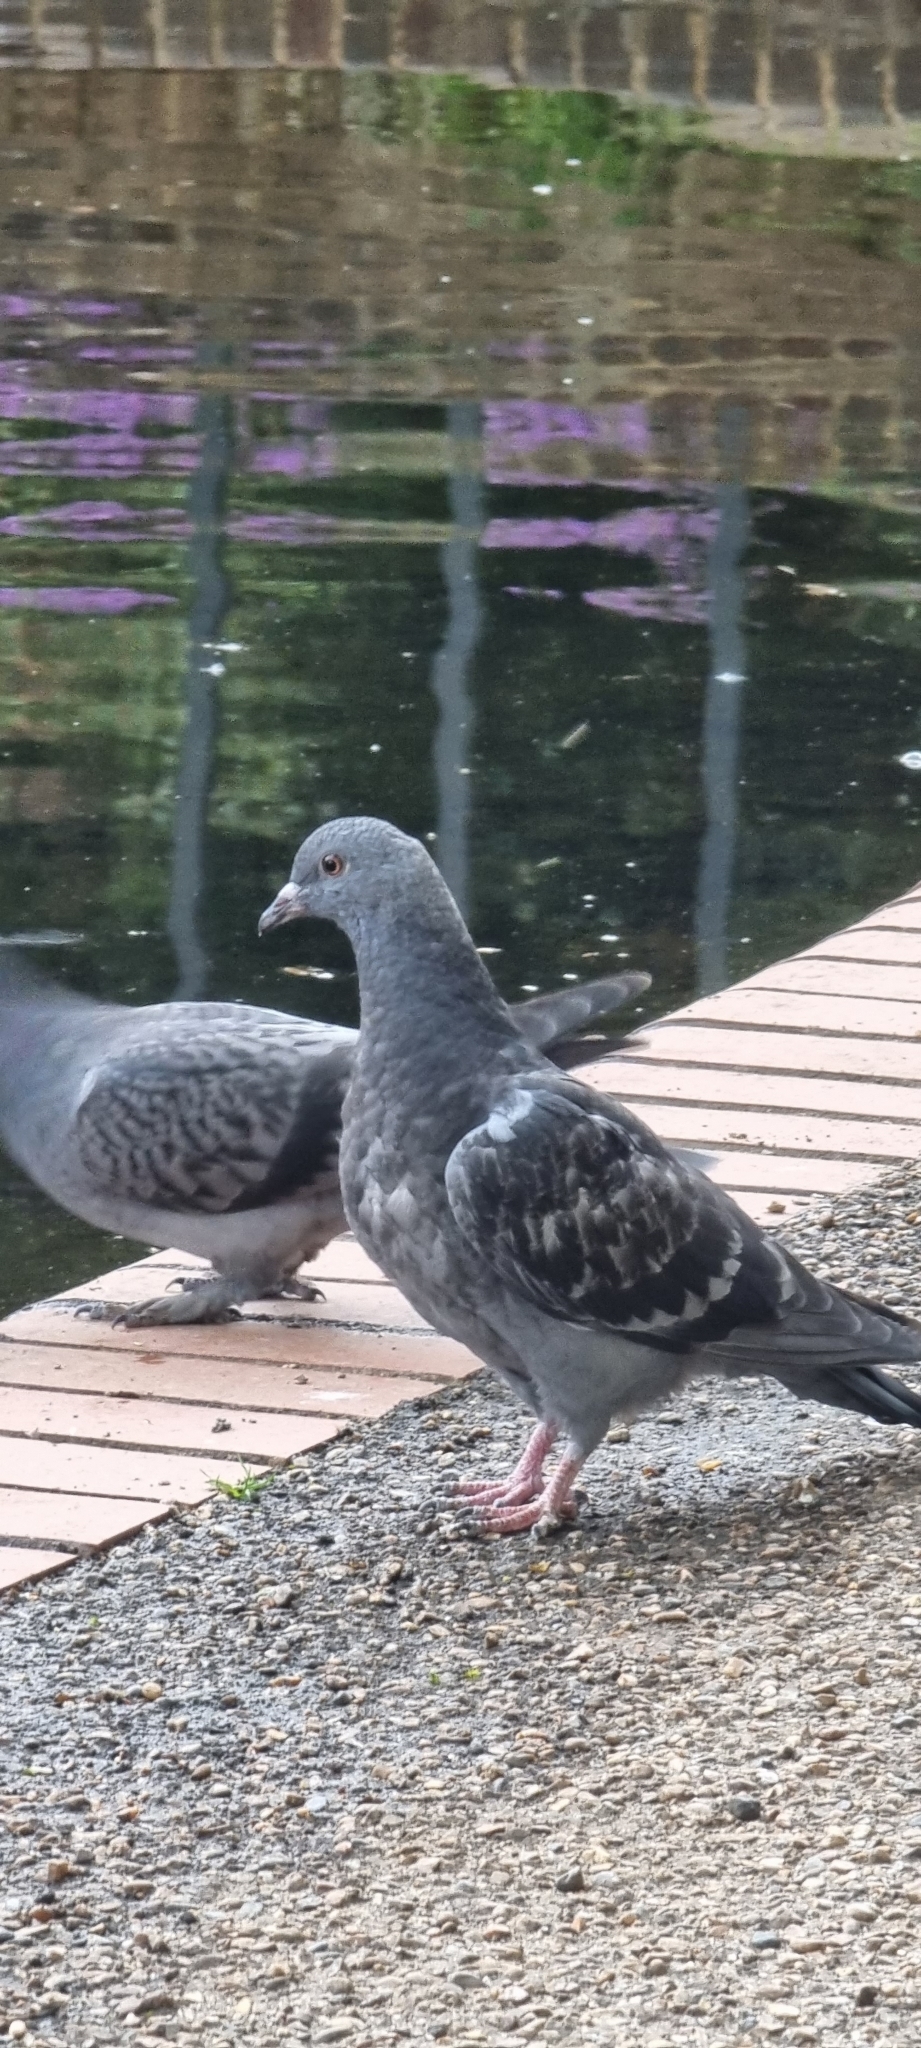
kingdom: Animalia
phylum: Chordata
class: Aves
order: Columbiformes
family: Columbidae
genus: Columba
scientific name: Columba livia
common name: Rock pigeon
